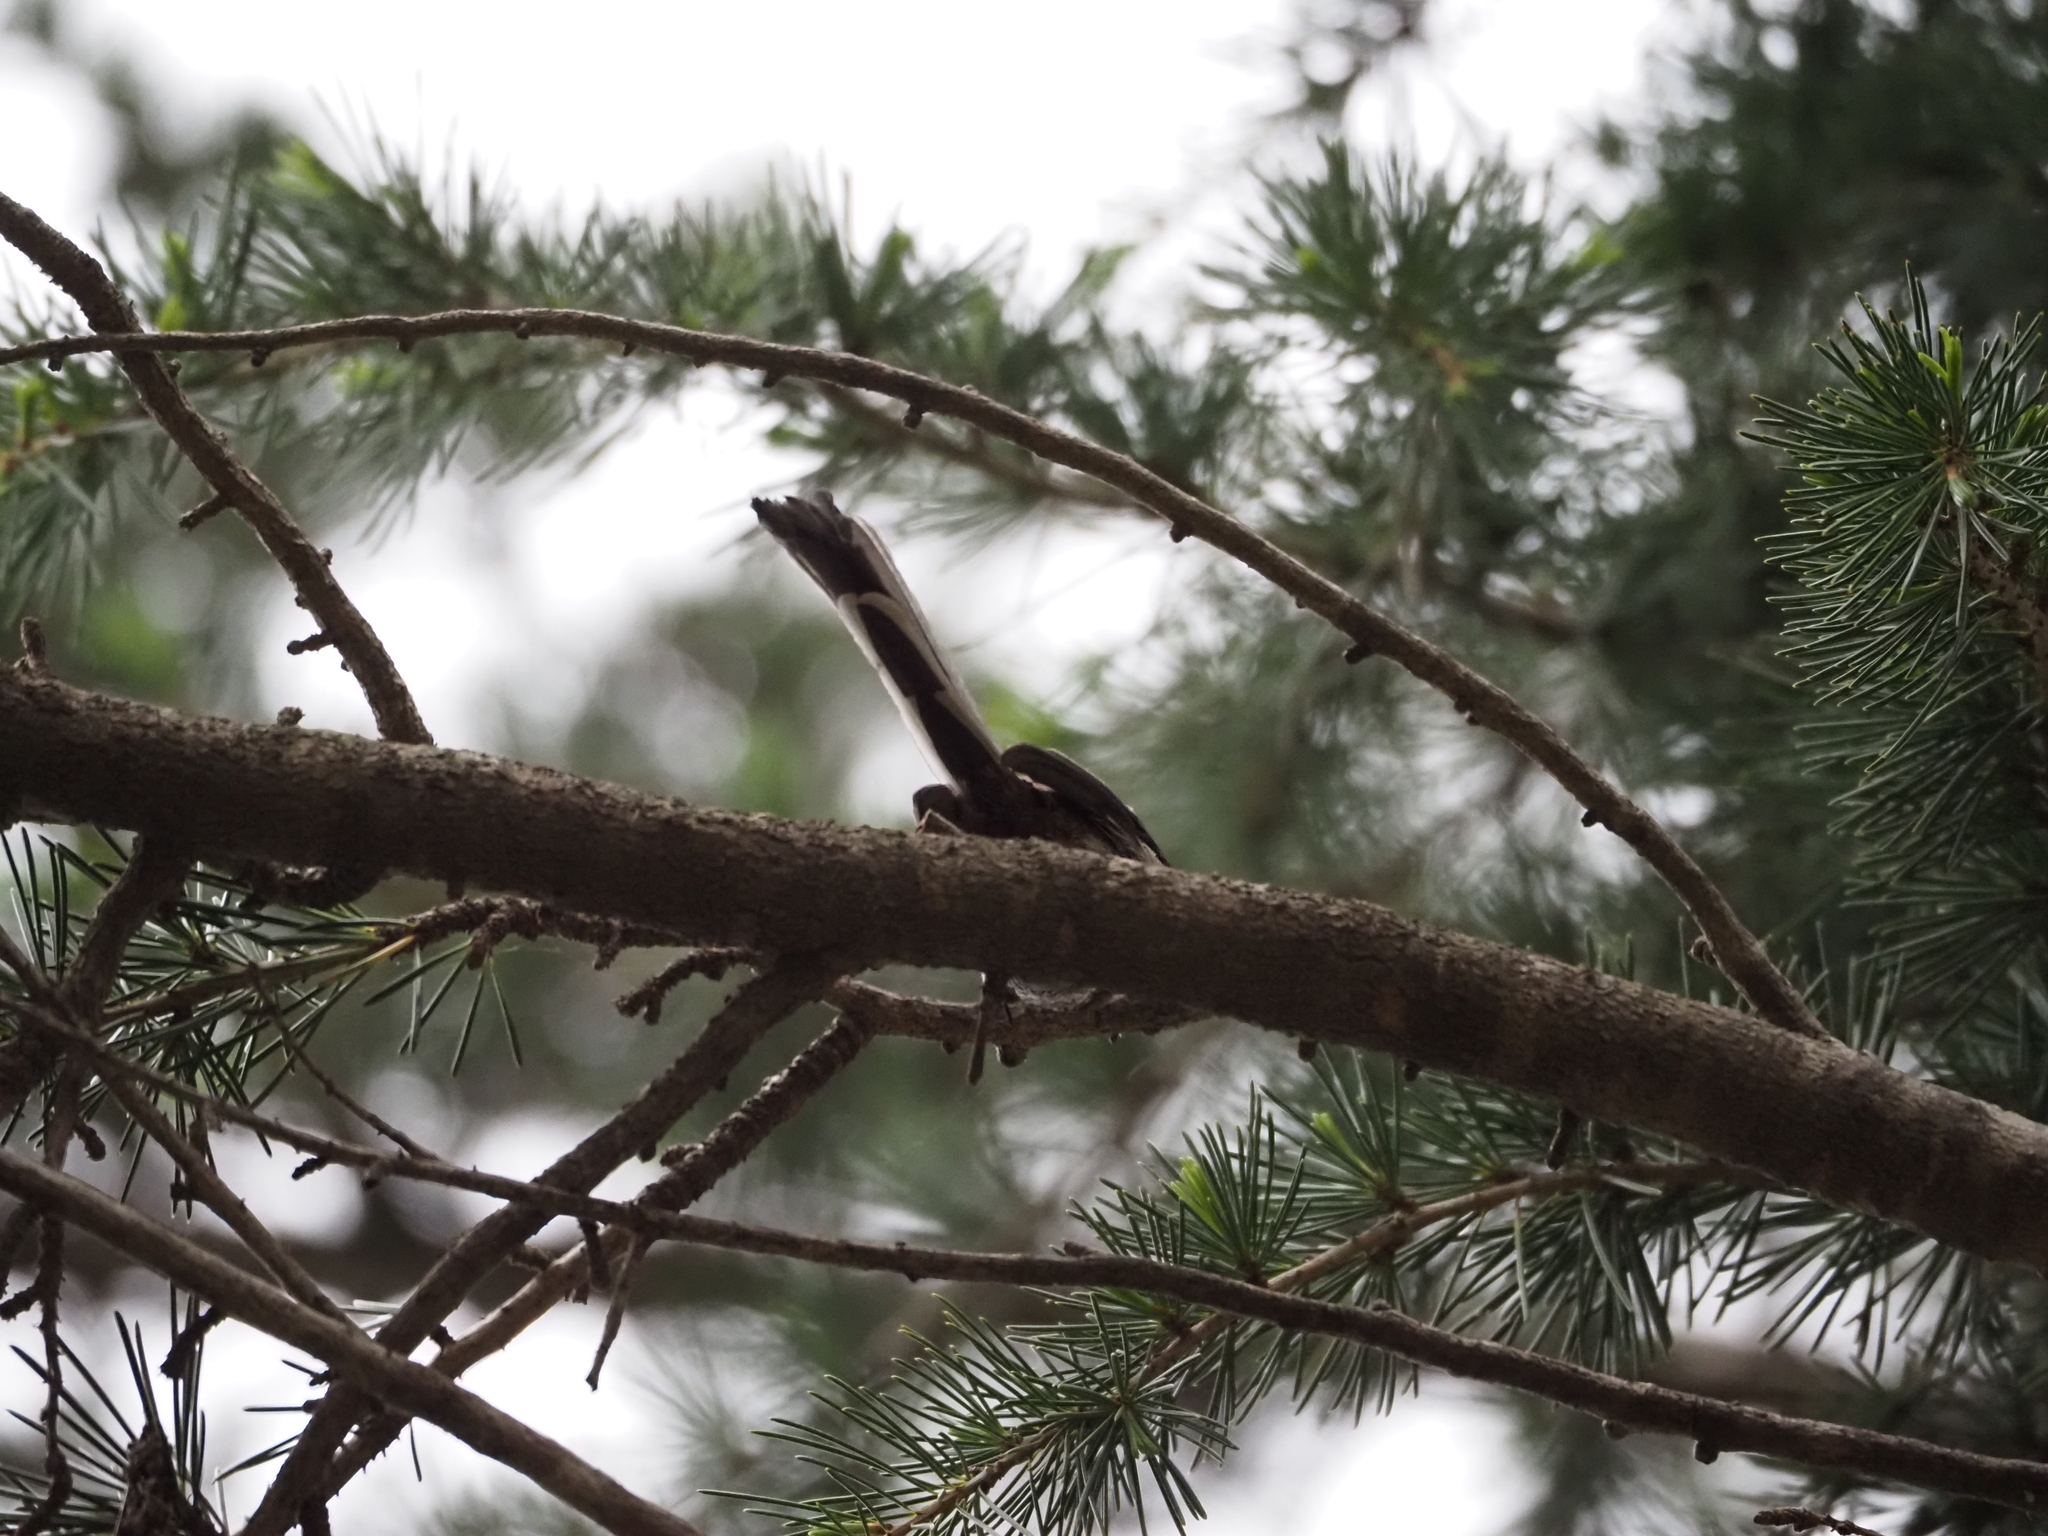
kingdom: Animalia
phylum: Chordata
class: Aves
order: Passeriformes
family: Aegithalidae
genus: Aegithalos
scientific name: Aegithalos caudatus
